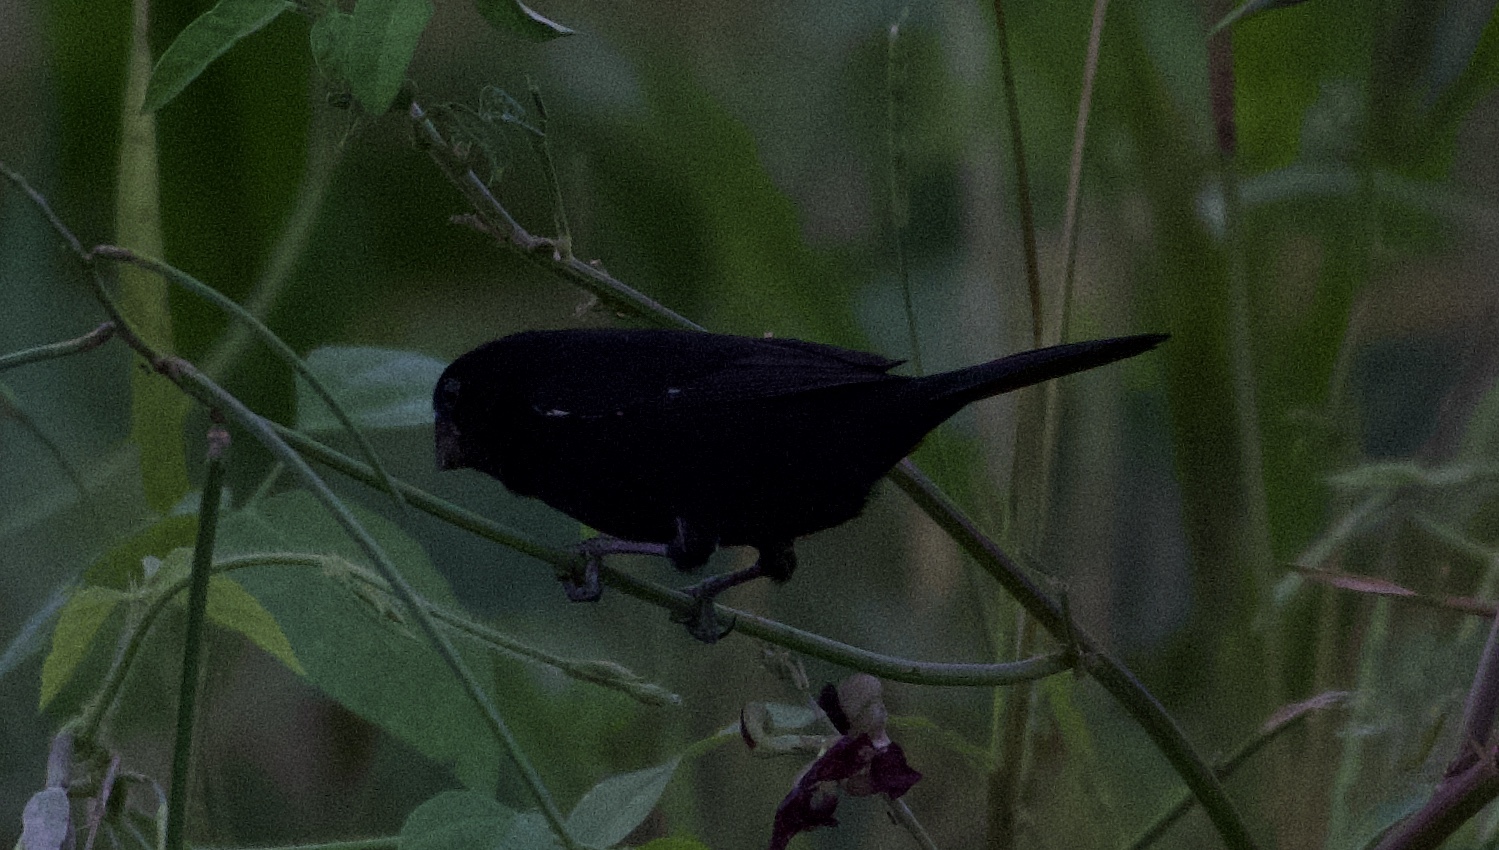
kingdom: Animalia
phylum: Chordata
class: Aves
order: Passeriformes
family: Thraupidae
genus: Sporophila
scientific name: Sporophila funerea
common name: Thick-billed seed-finch
